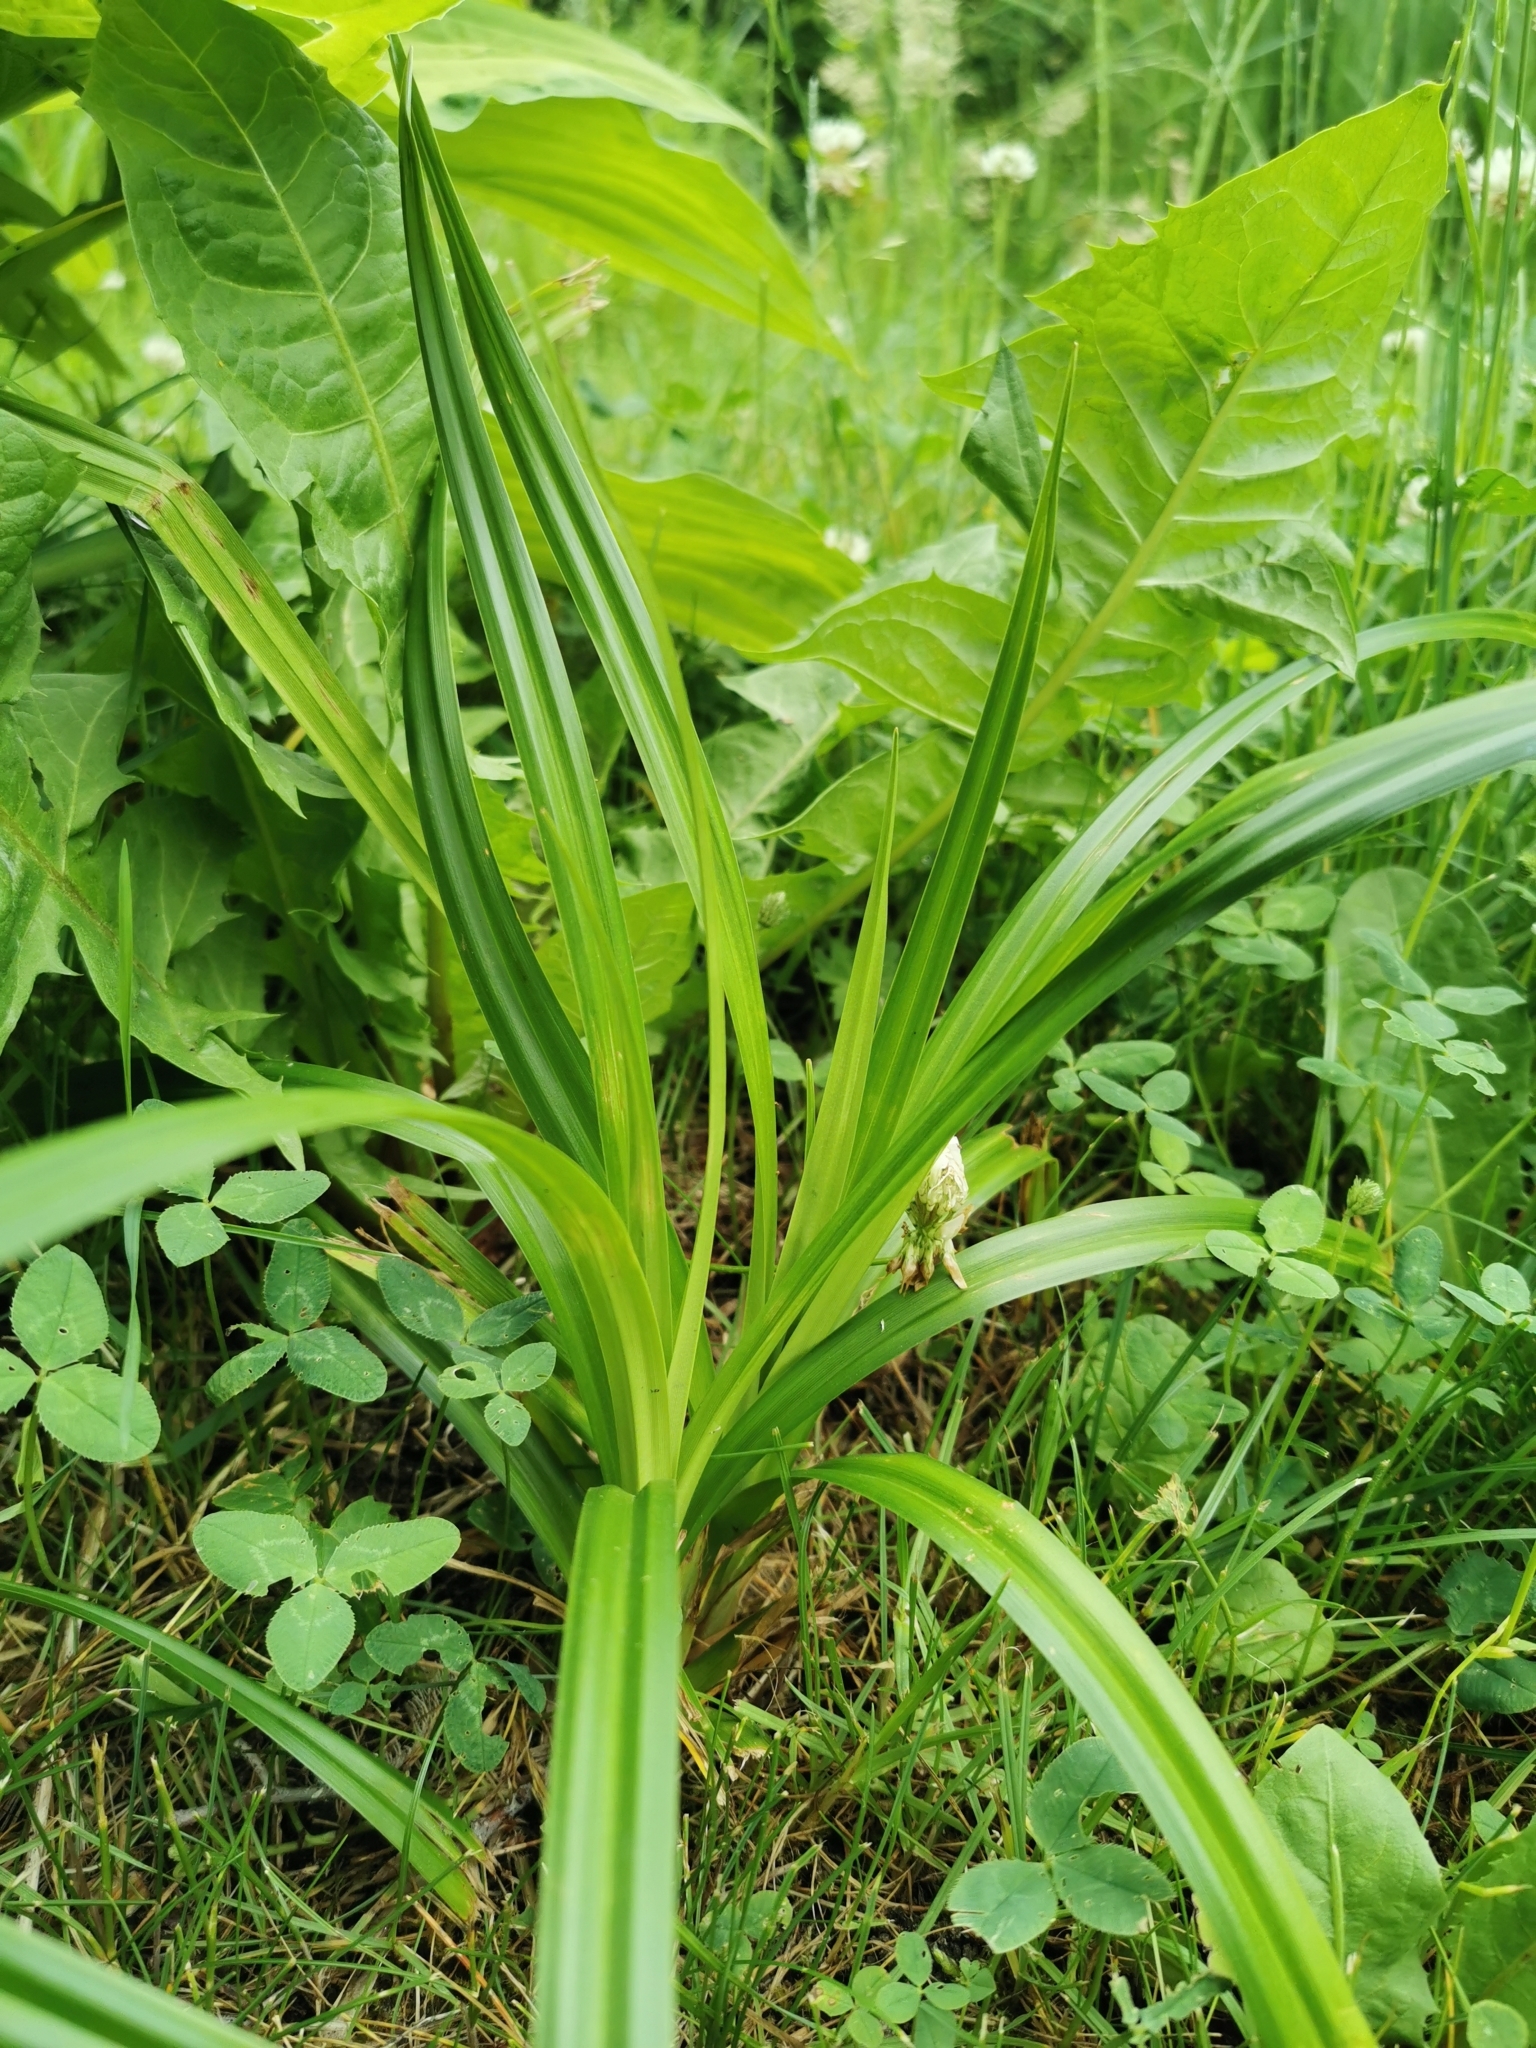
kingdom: Plantae
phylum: Tracheophyta
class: Liliopsida
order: Poales
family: Cyperaceae
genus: Scirpus
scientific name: Scirpus sylvaticus
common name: Wood club-rush
